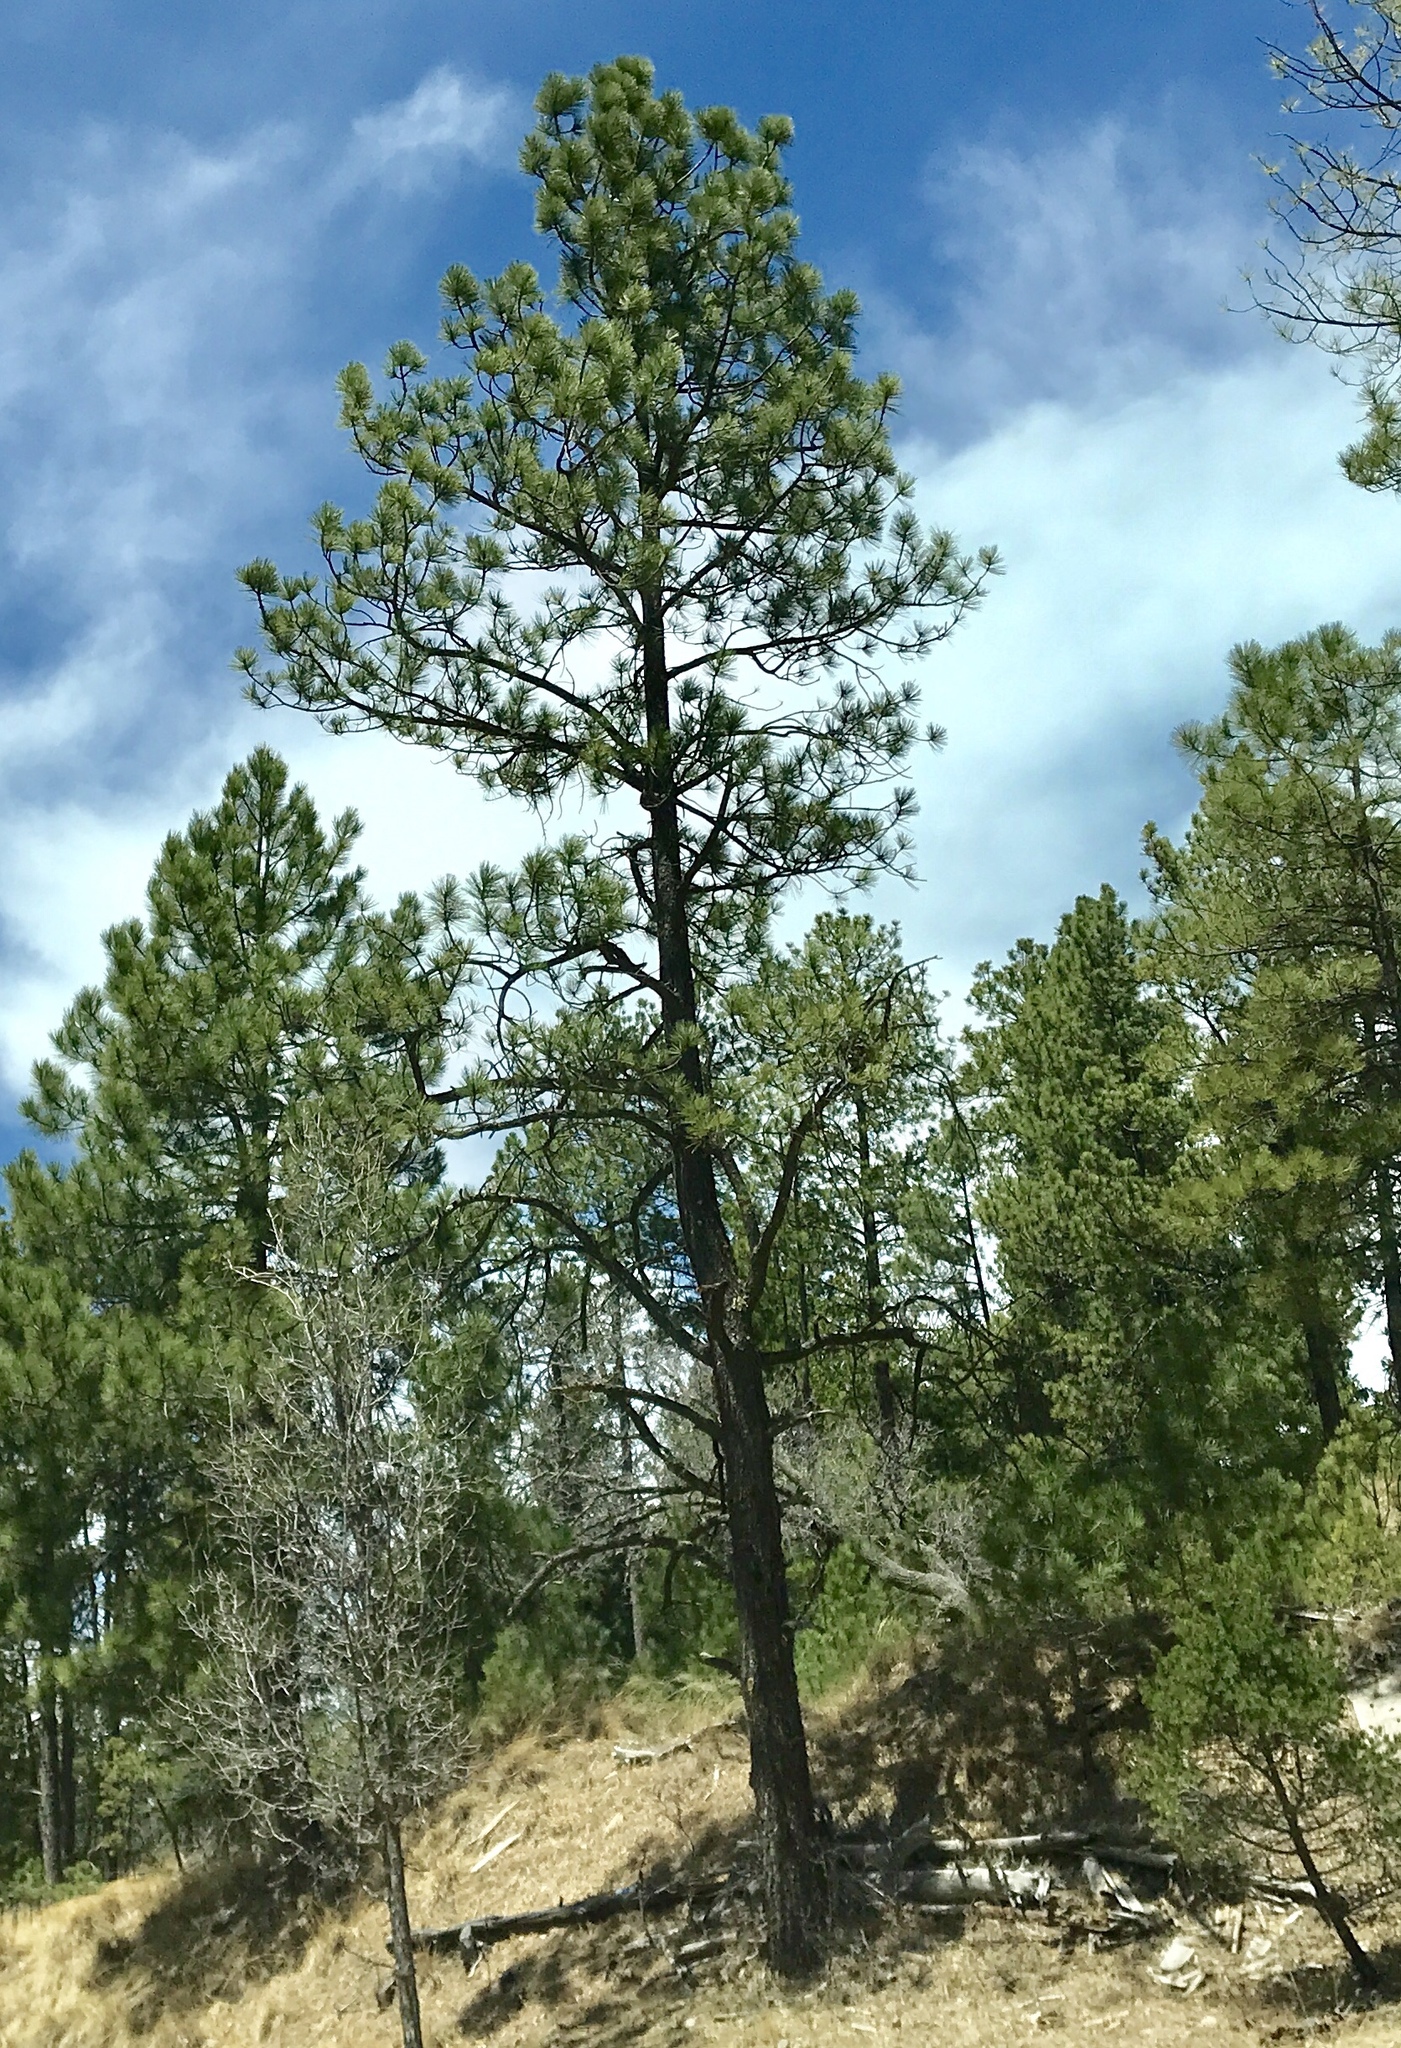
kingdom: Plantae
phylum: Tracheophyta
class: Pinopsida
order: Pinales
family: Pinaceae
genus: Pinus
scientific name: Pinus strobiformis
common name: Southwestern white pine
